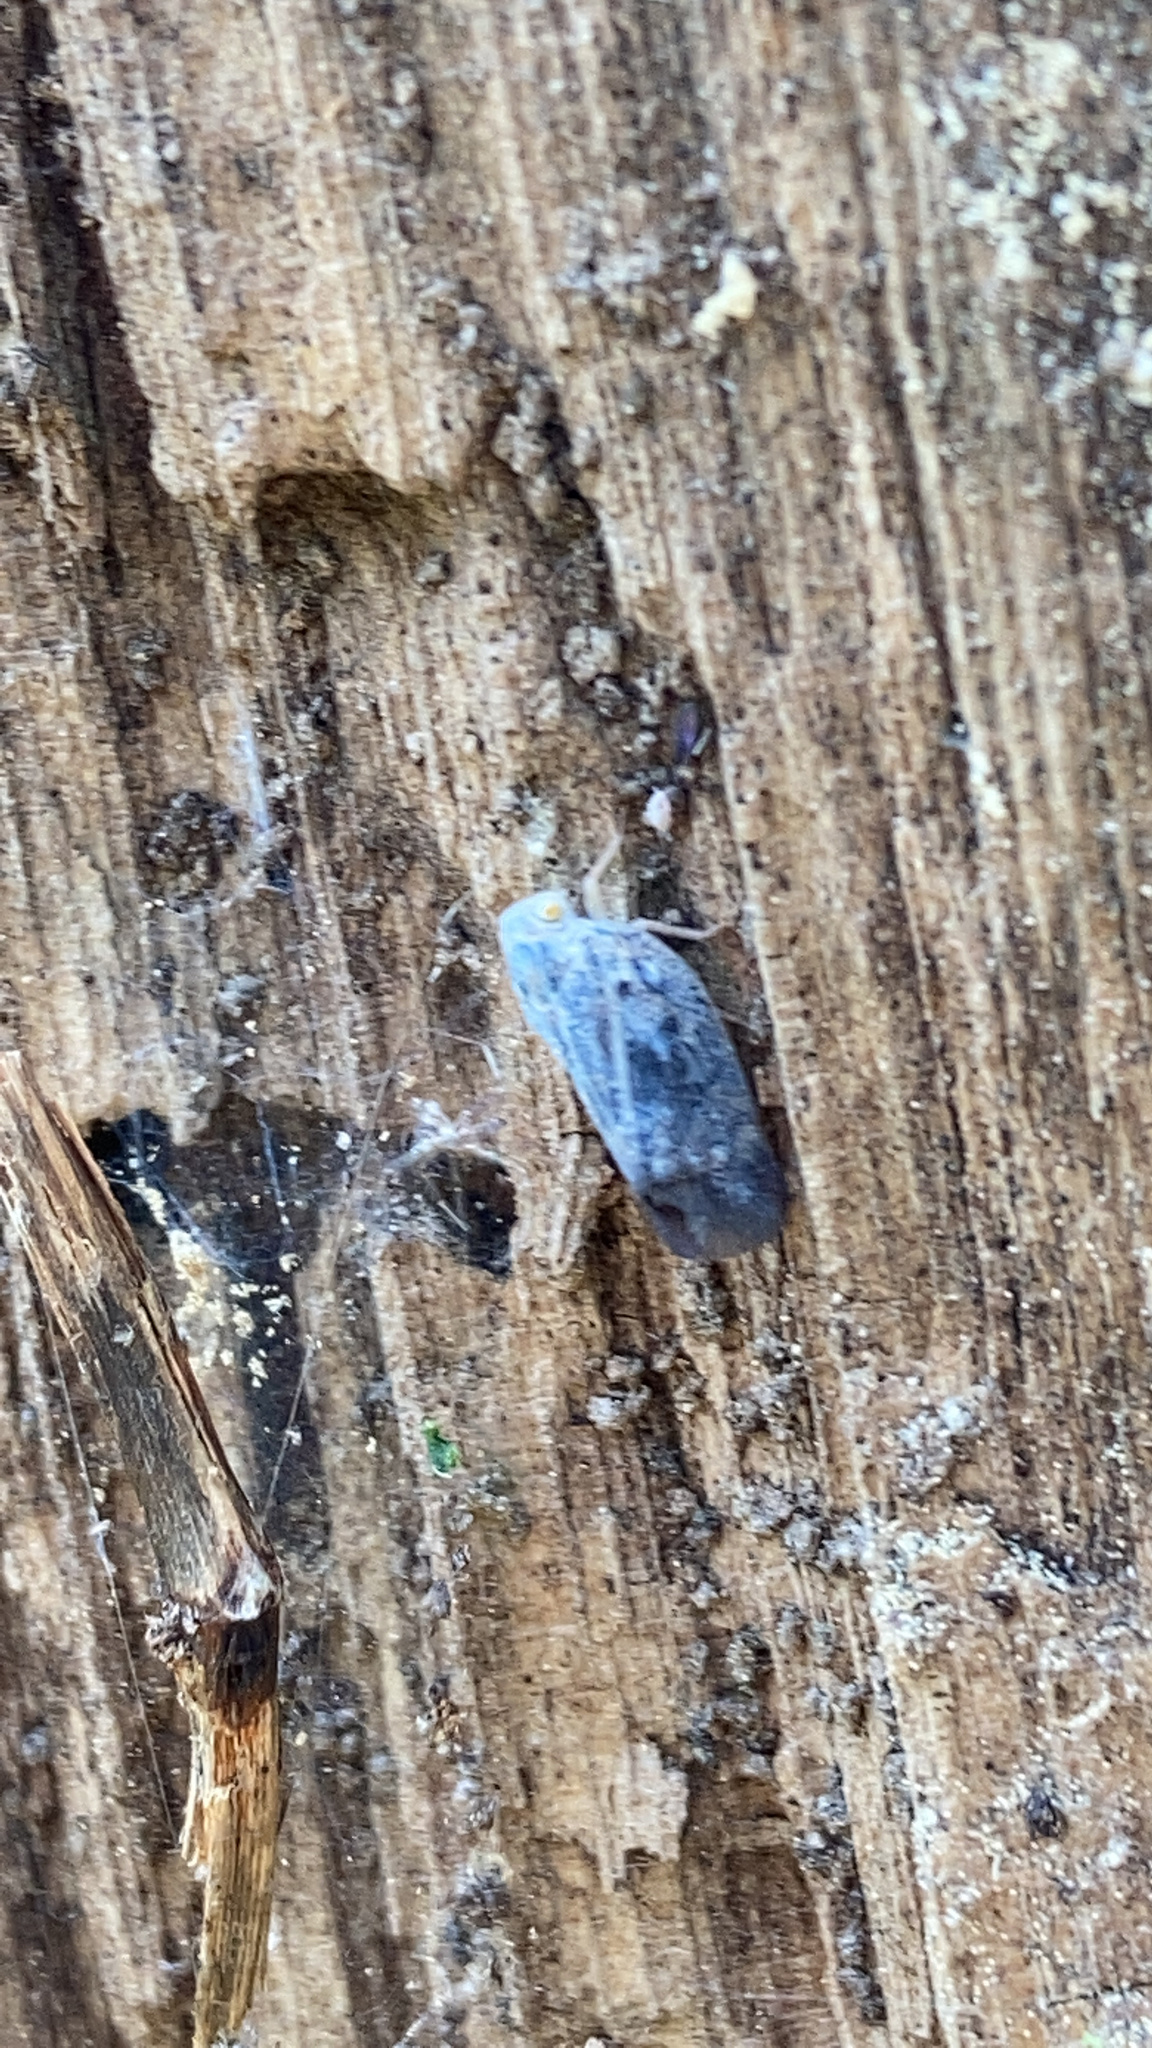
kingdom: Animalia
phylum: Arthropoda
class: Insecta
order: Hemiptera
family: Flatidae
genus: Metcalfa
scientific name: Metcalfa pruinosa
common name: Citrus flatid planthopper
